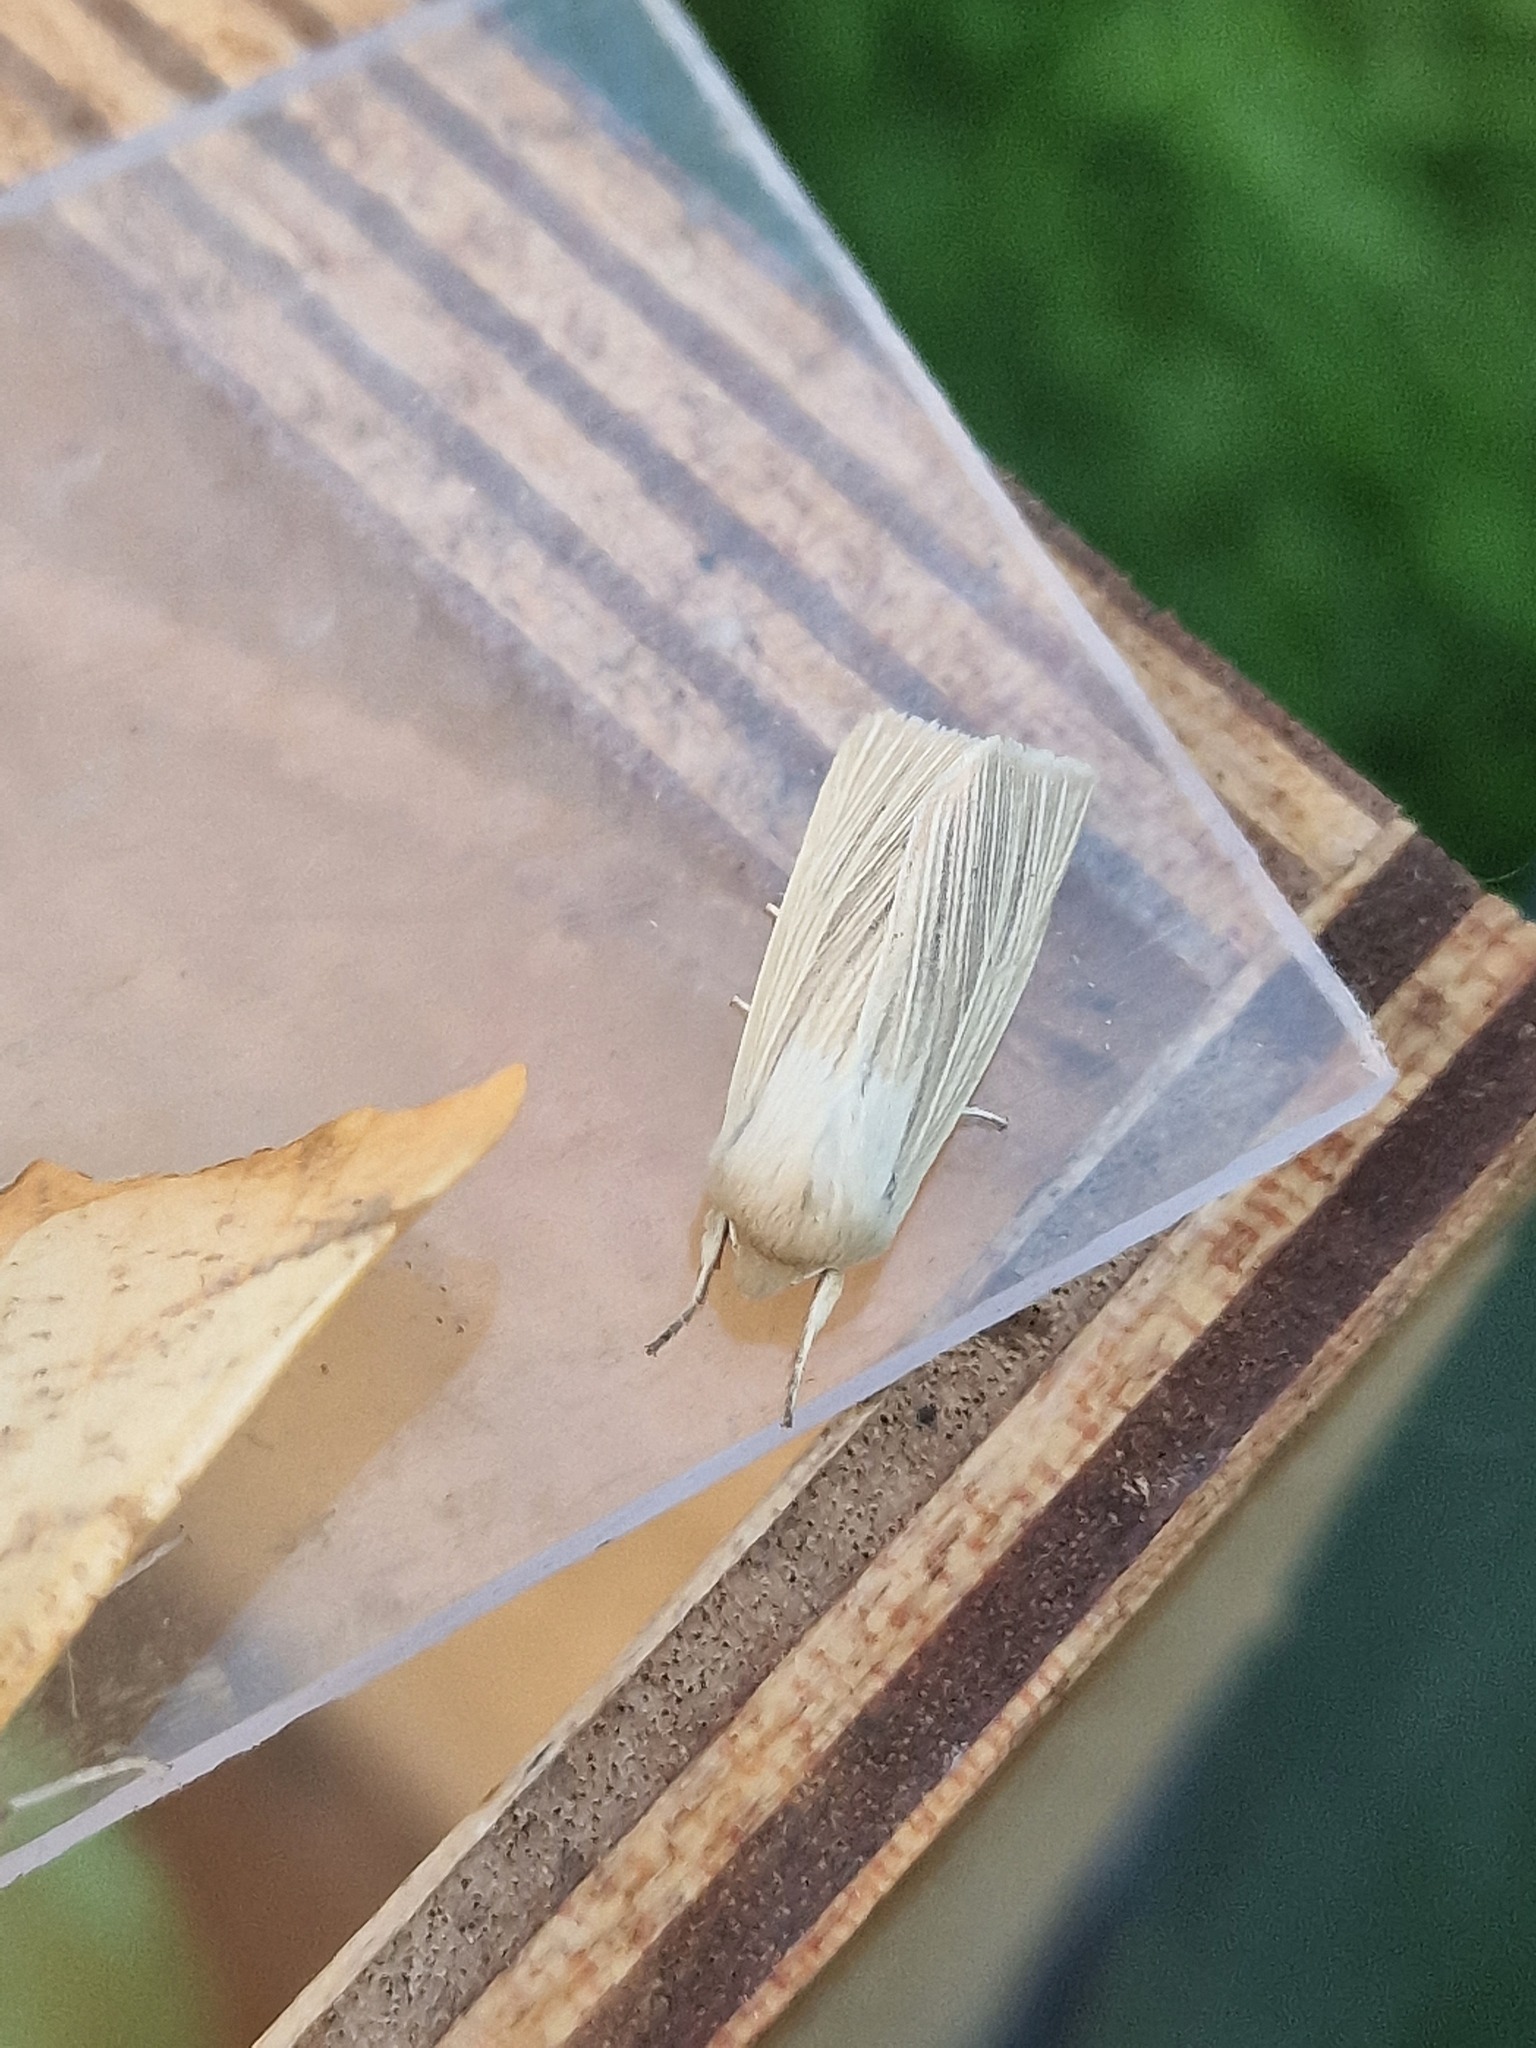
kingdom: Animalia
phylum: Arthropoda
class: Insecta
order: Lepidoptera
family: Noctuidae
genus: Mythimna
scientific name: Mythimna pallens
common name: Common wainscot
